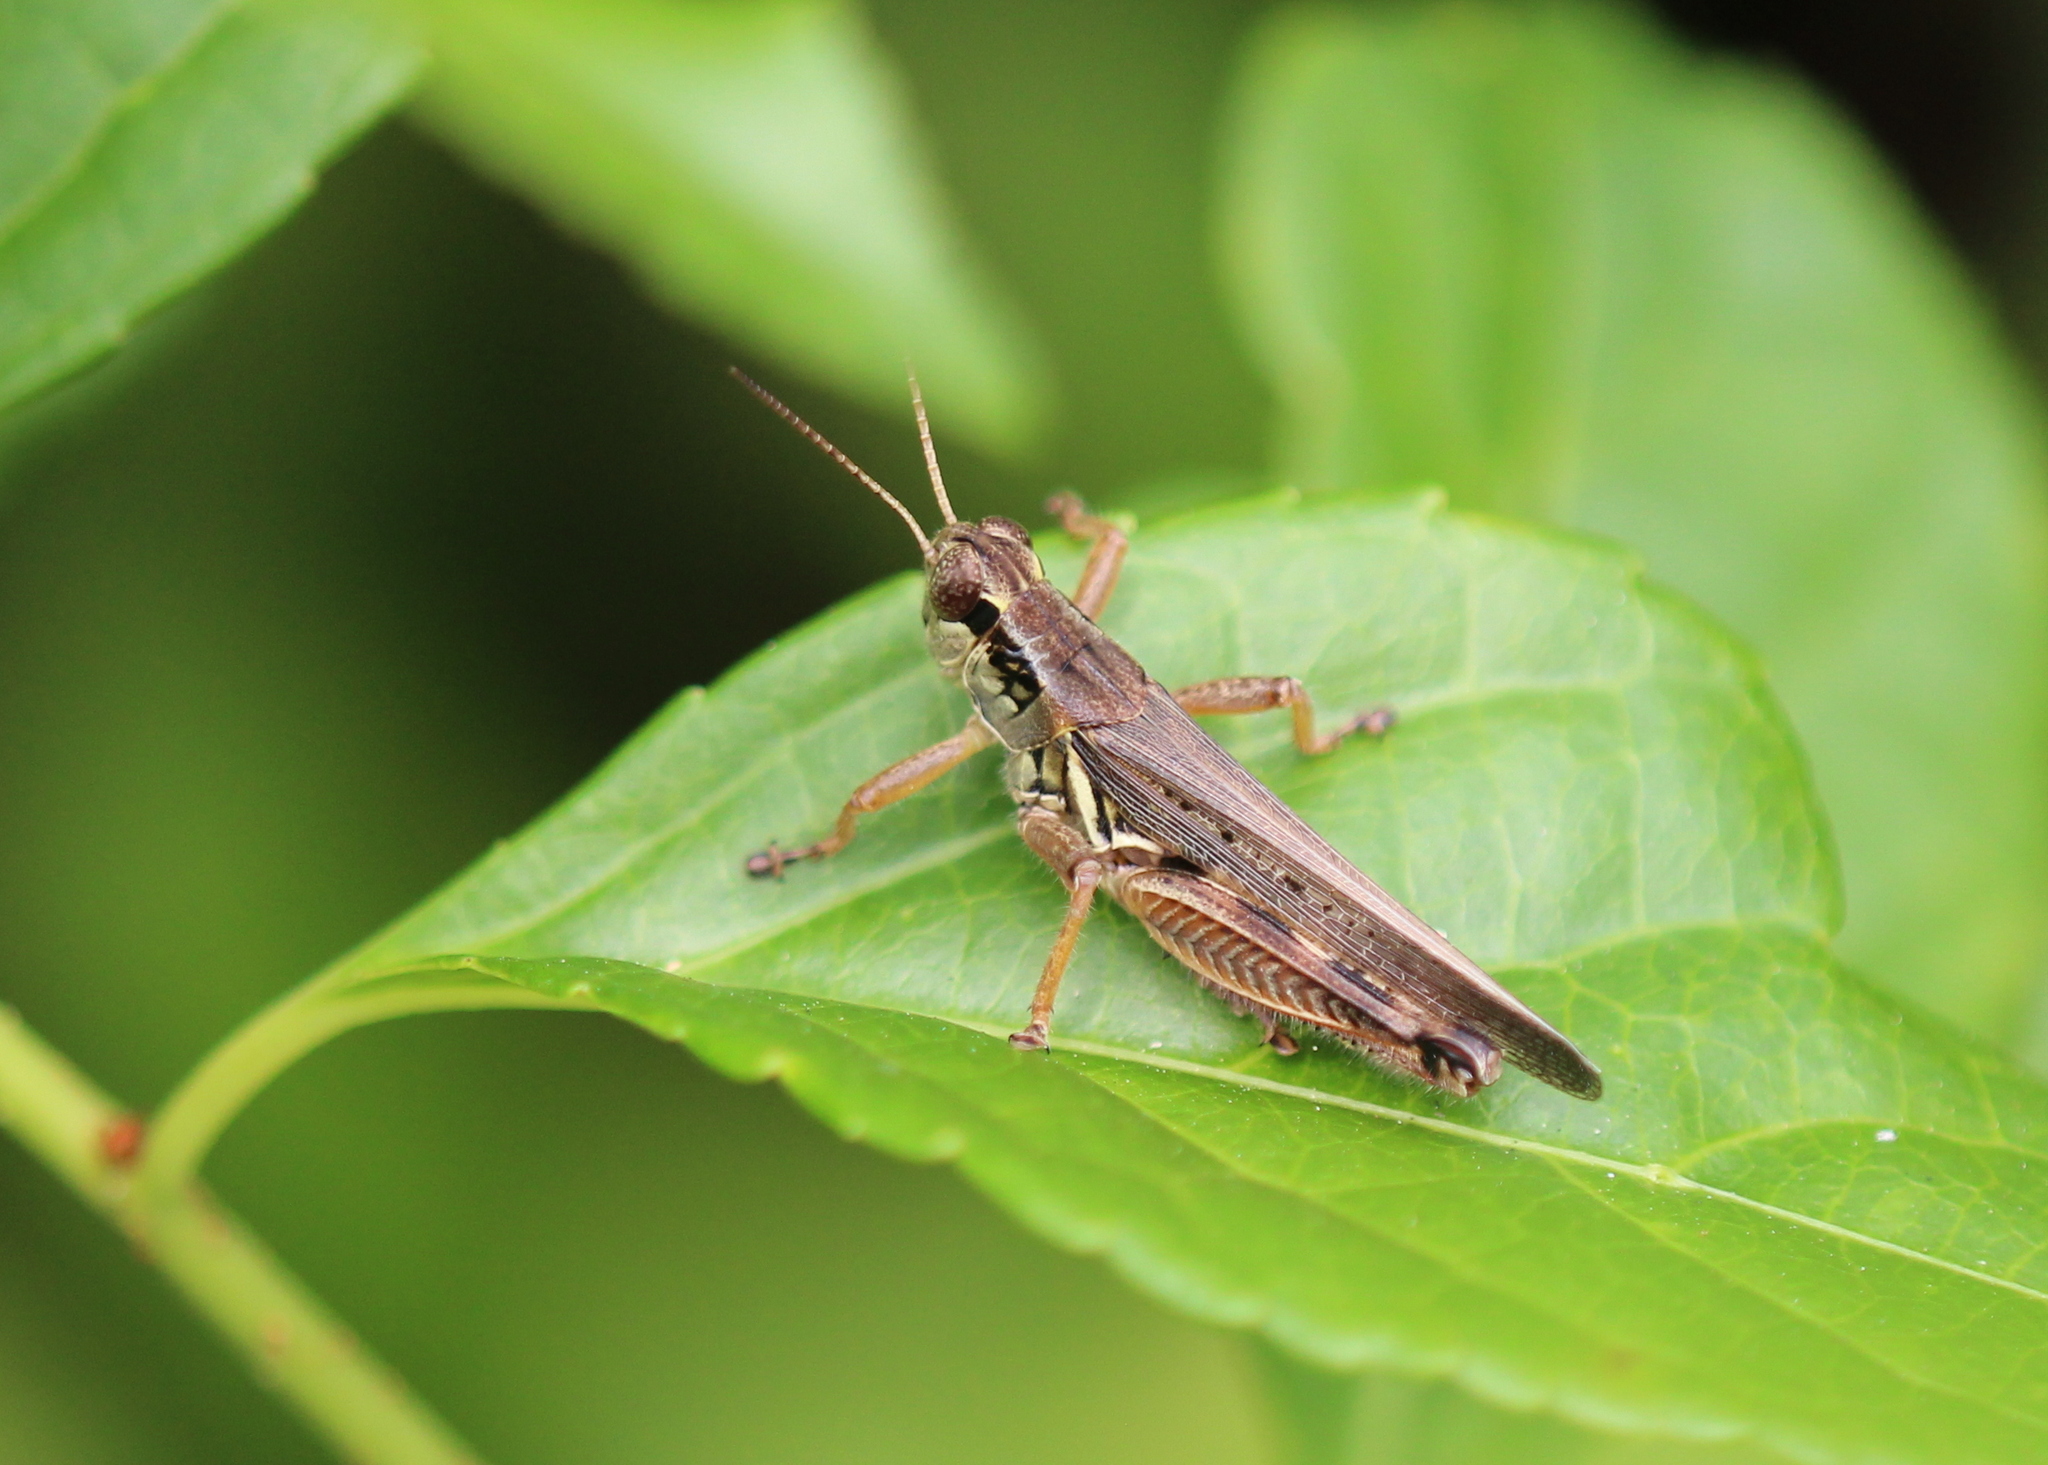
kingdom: Animalia
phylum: Arthropoda
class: Insecta
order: Orthoptera
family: Acrididae
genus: Melanoplus
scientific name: Melanoplus femurrubrum
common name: Red-legged grasshopper
